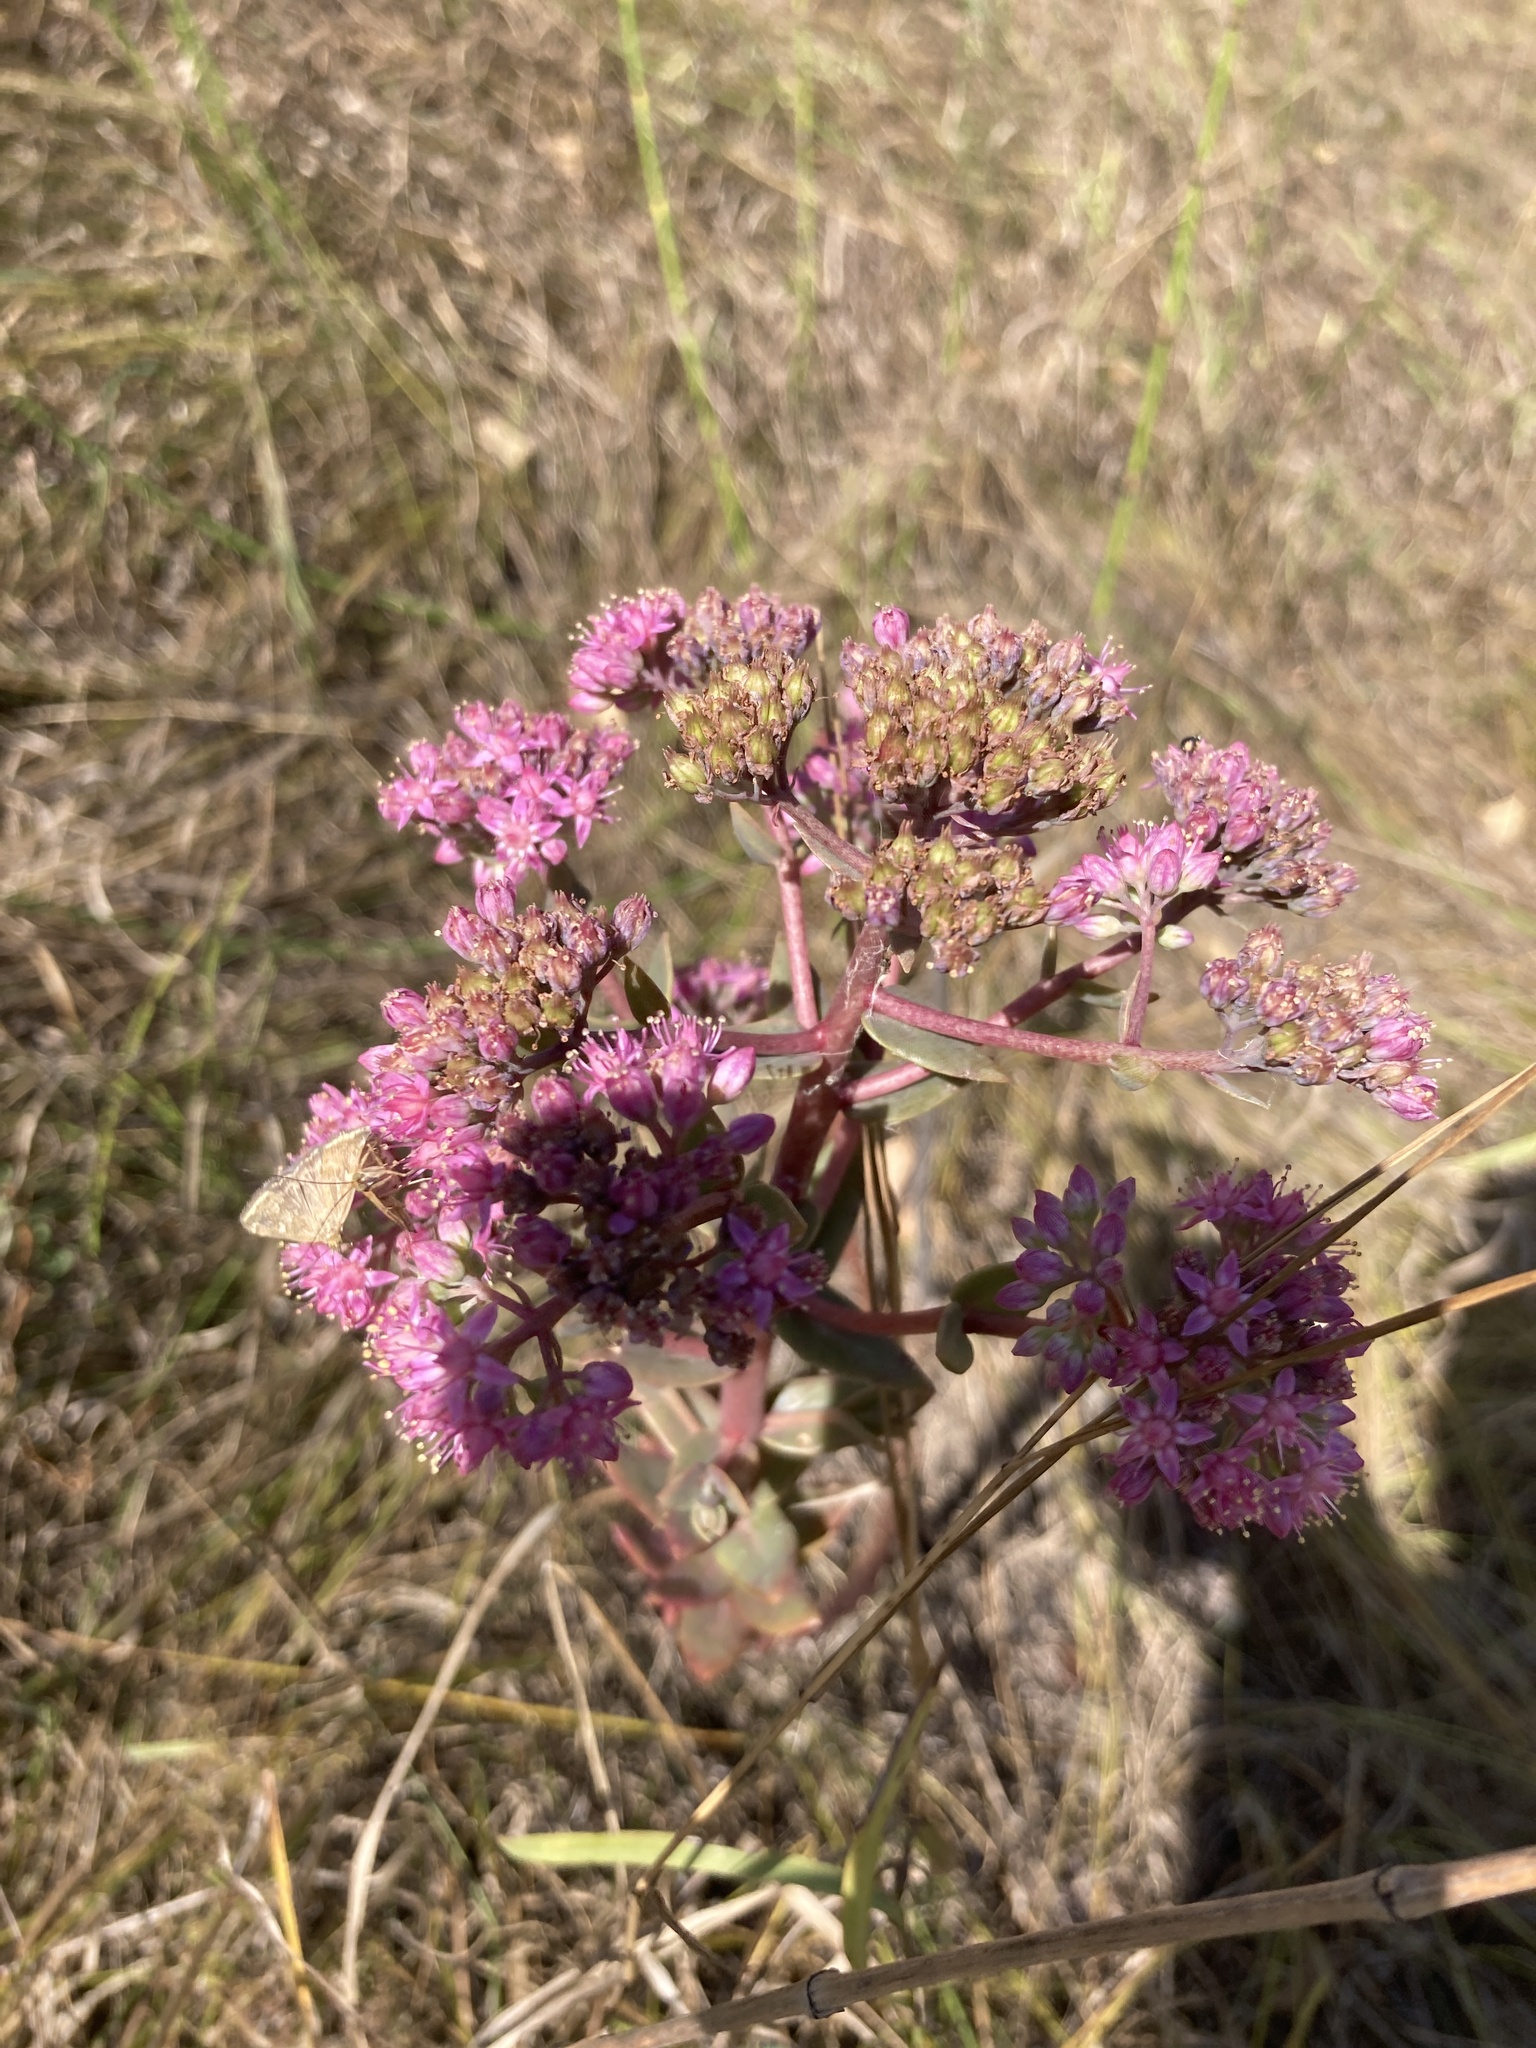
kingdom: Plantae
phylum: Tracheophyta
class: Magnoliopsida
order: Saxifragales
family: Crassulaceae
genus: Hylotelephium
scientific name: Hylotelephium telephium
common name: Live-forever
